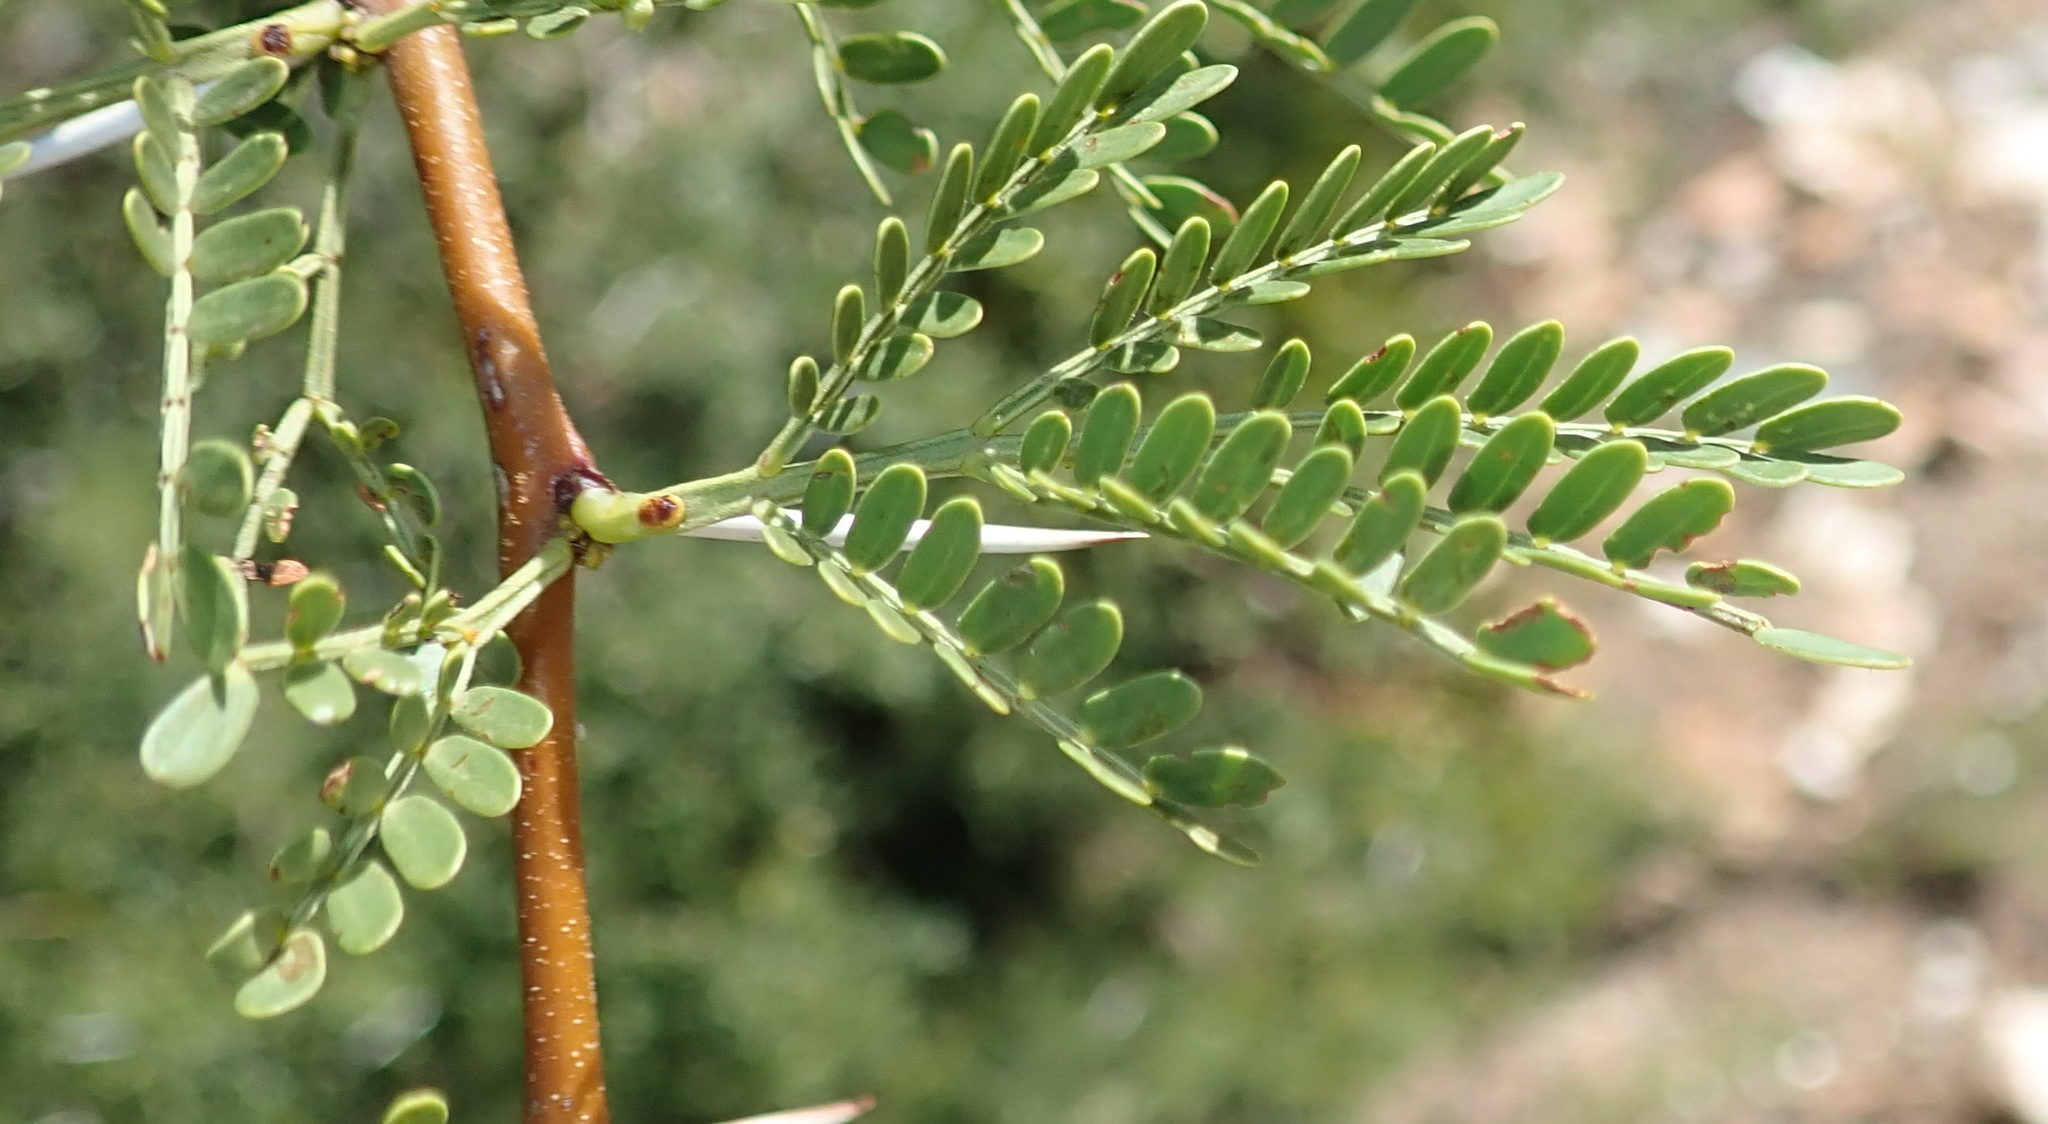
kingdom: Plantae
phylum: Tracheophyta
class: Magnoliopsida
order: Fabales
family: Fabaceae
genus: Vachellia
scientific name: Vachellia karroo
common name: Sweet thorn
